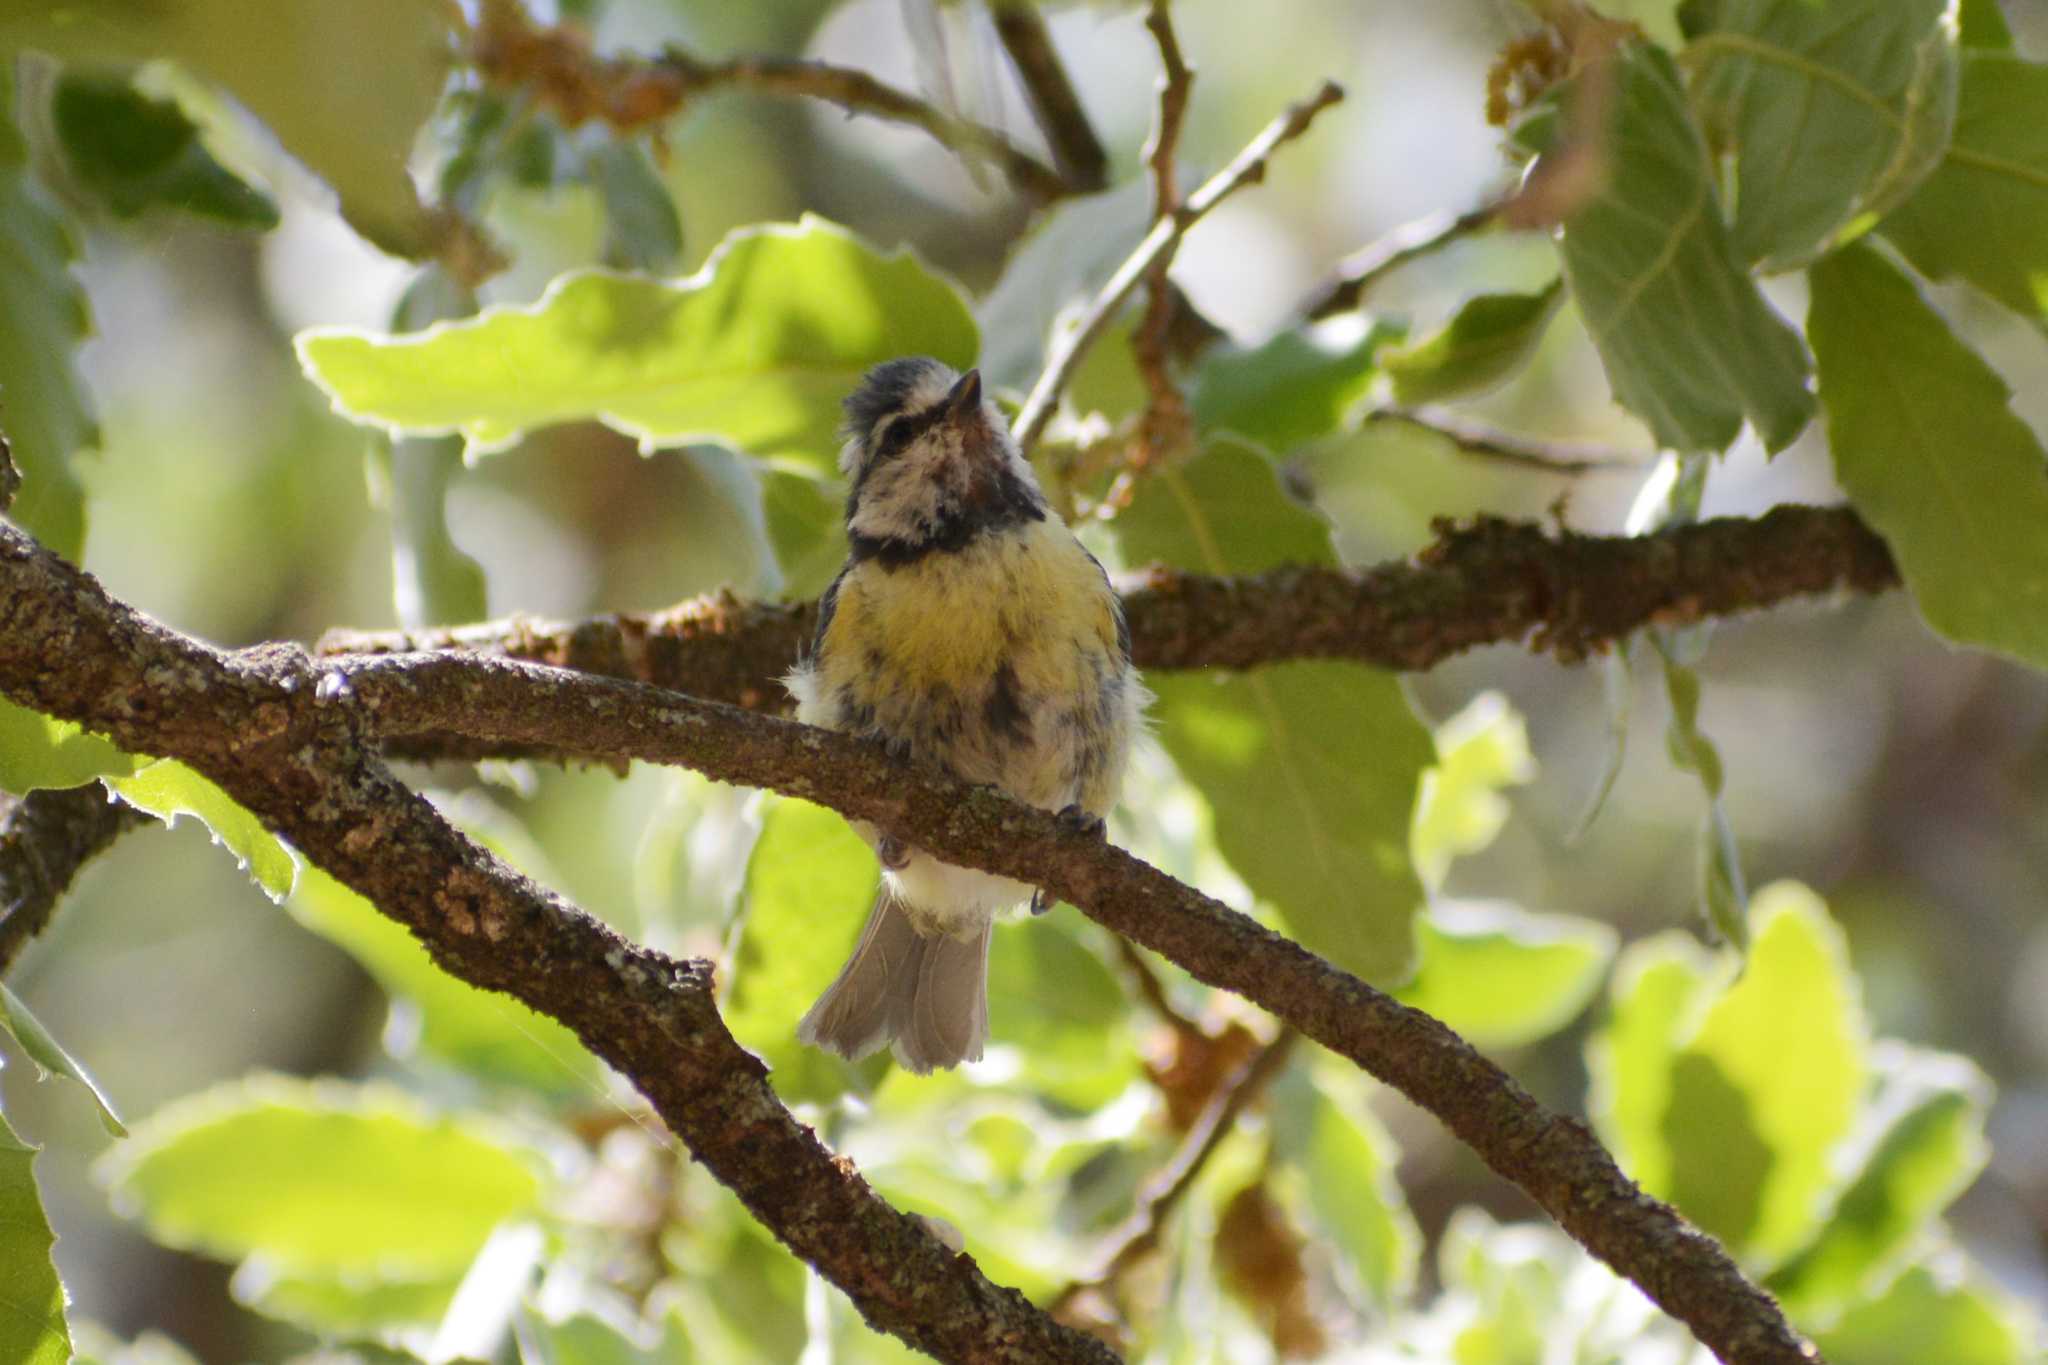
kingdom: Animalia
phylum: Chordata
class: Aves
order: Passeriformes
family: Paridae
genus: Cyanistes
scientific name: Cyanistes caeruleus
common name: Eurasian blue tit
